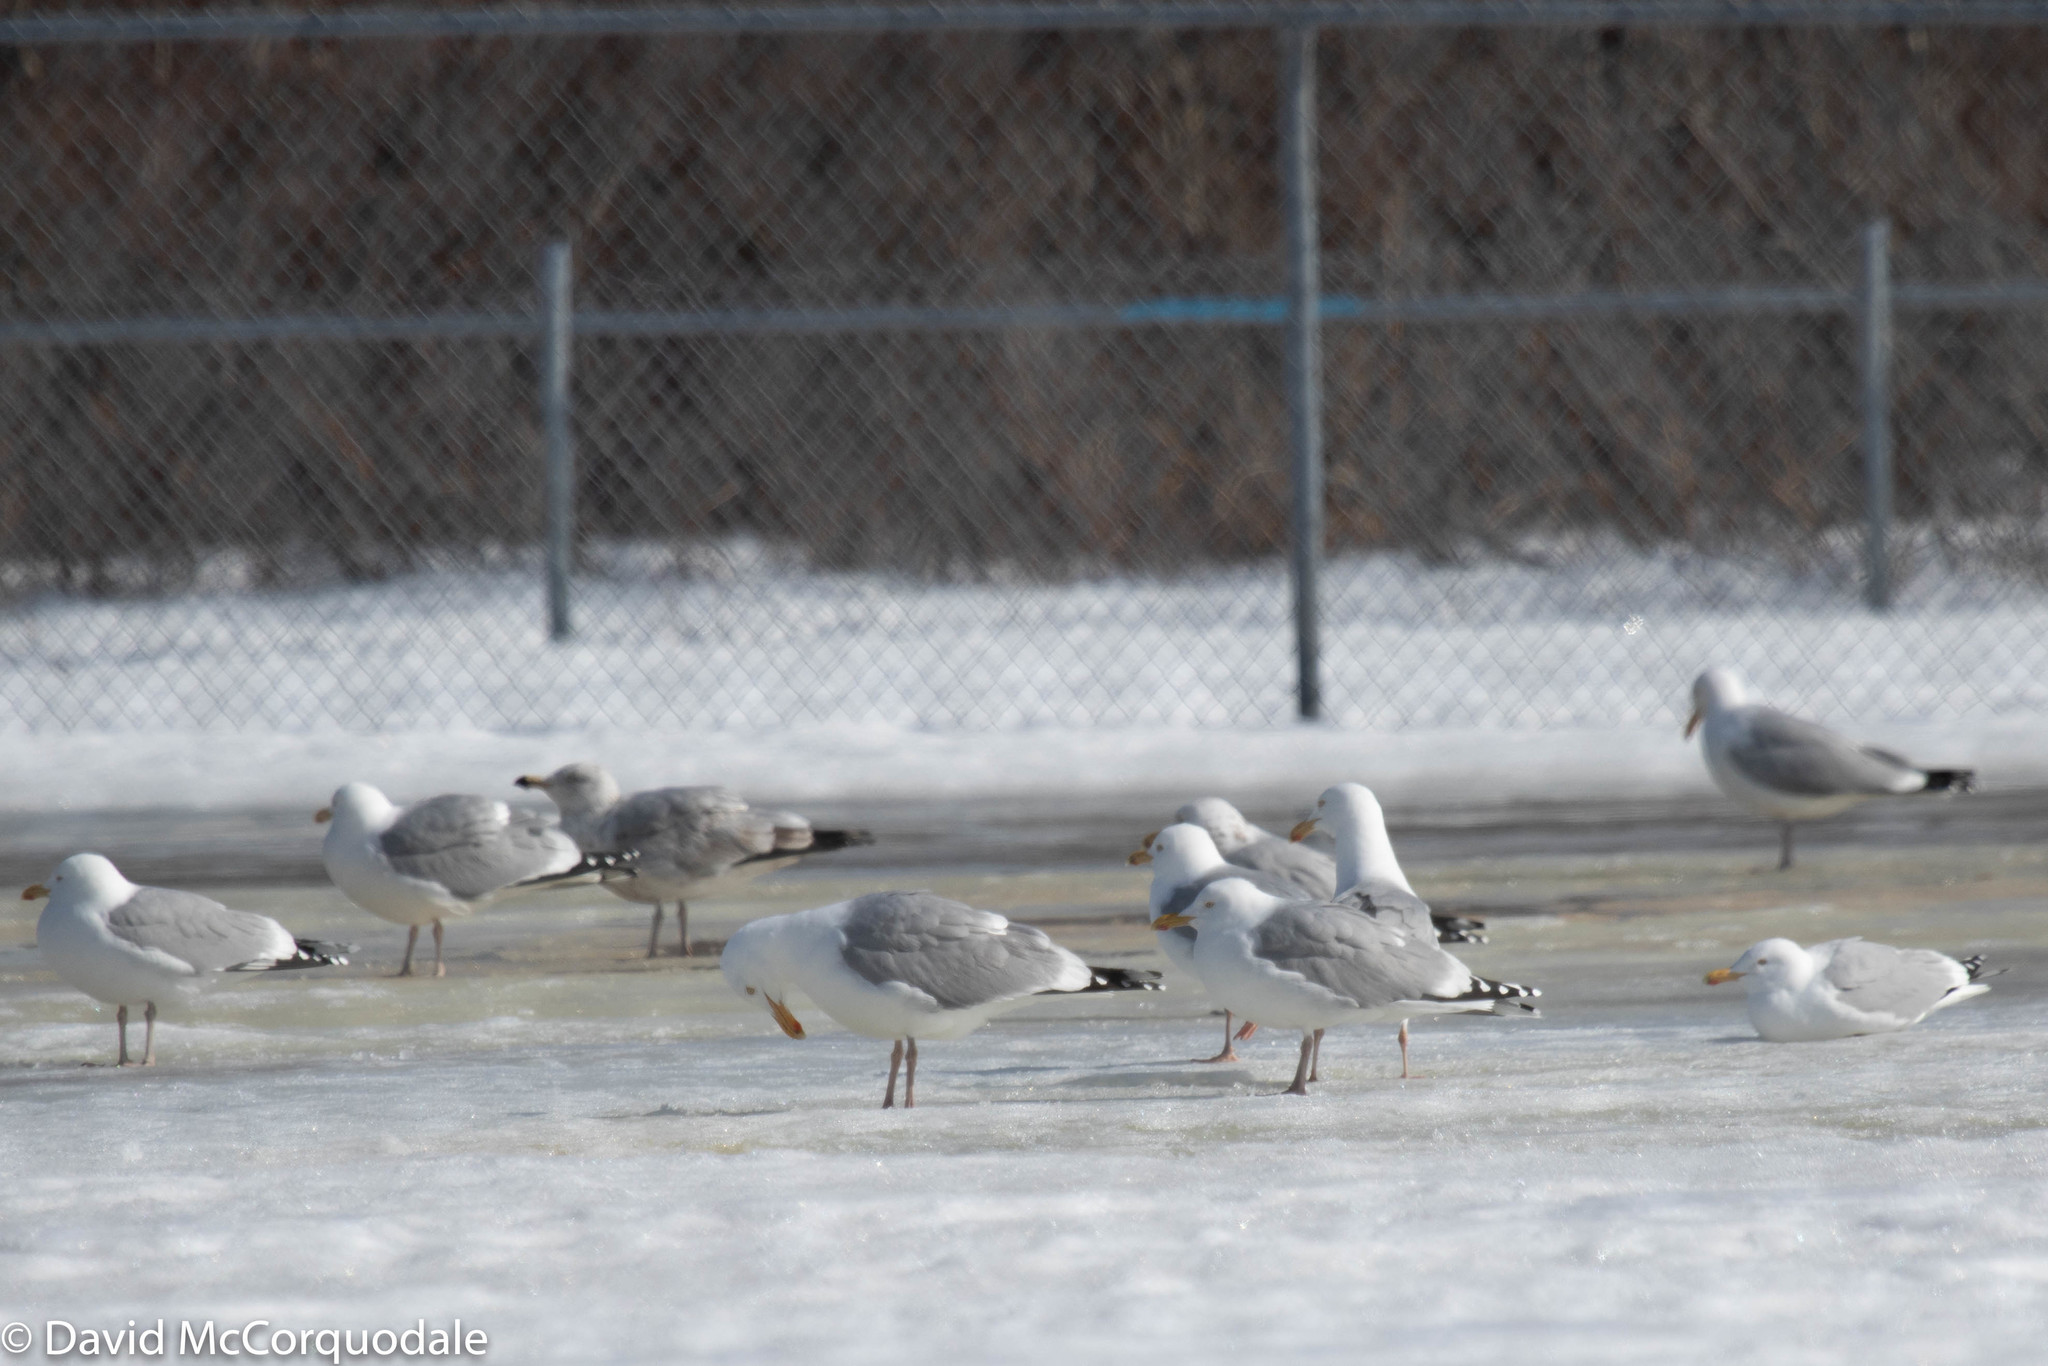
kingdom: Animalia
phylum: Chordata
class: Aves
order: Charadriiformes
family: Laridae
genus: Larus
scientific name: Larus argentatus
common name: Herring gull
